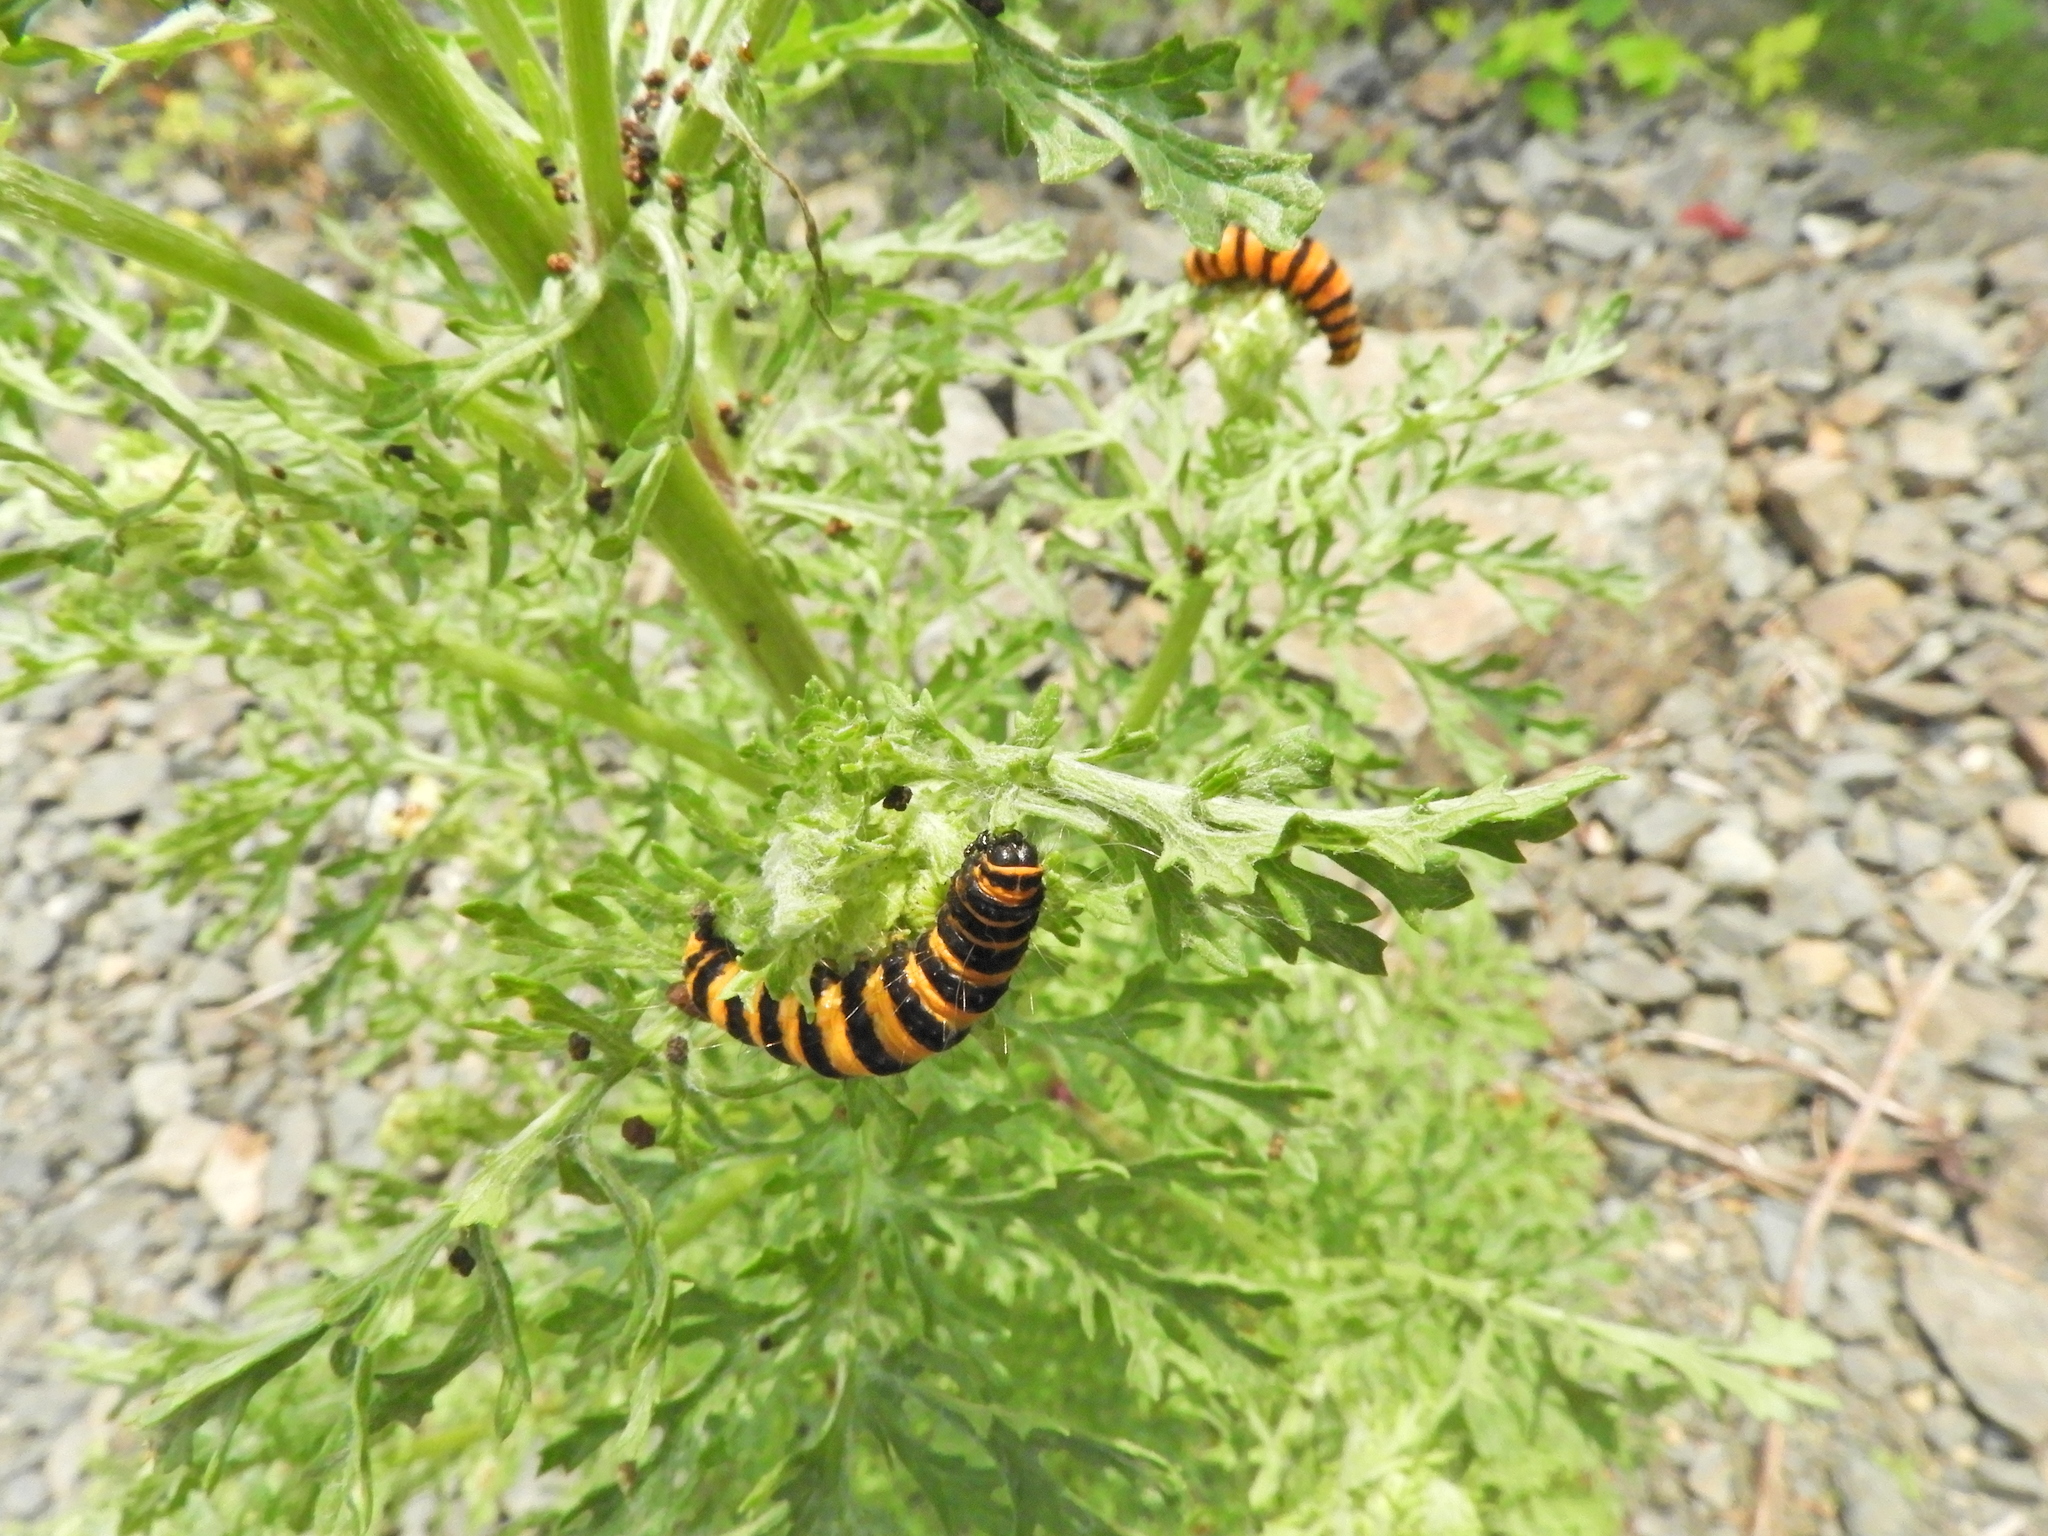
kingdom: Animalia
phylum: Arthropoda
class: Insecta
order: Lepidoptera
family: Erebidae
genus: Tyria
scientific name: Tyria jacobaeae
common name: Cinnabar
